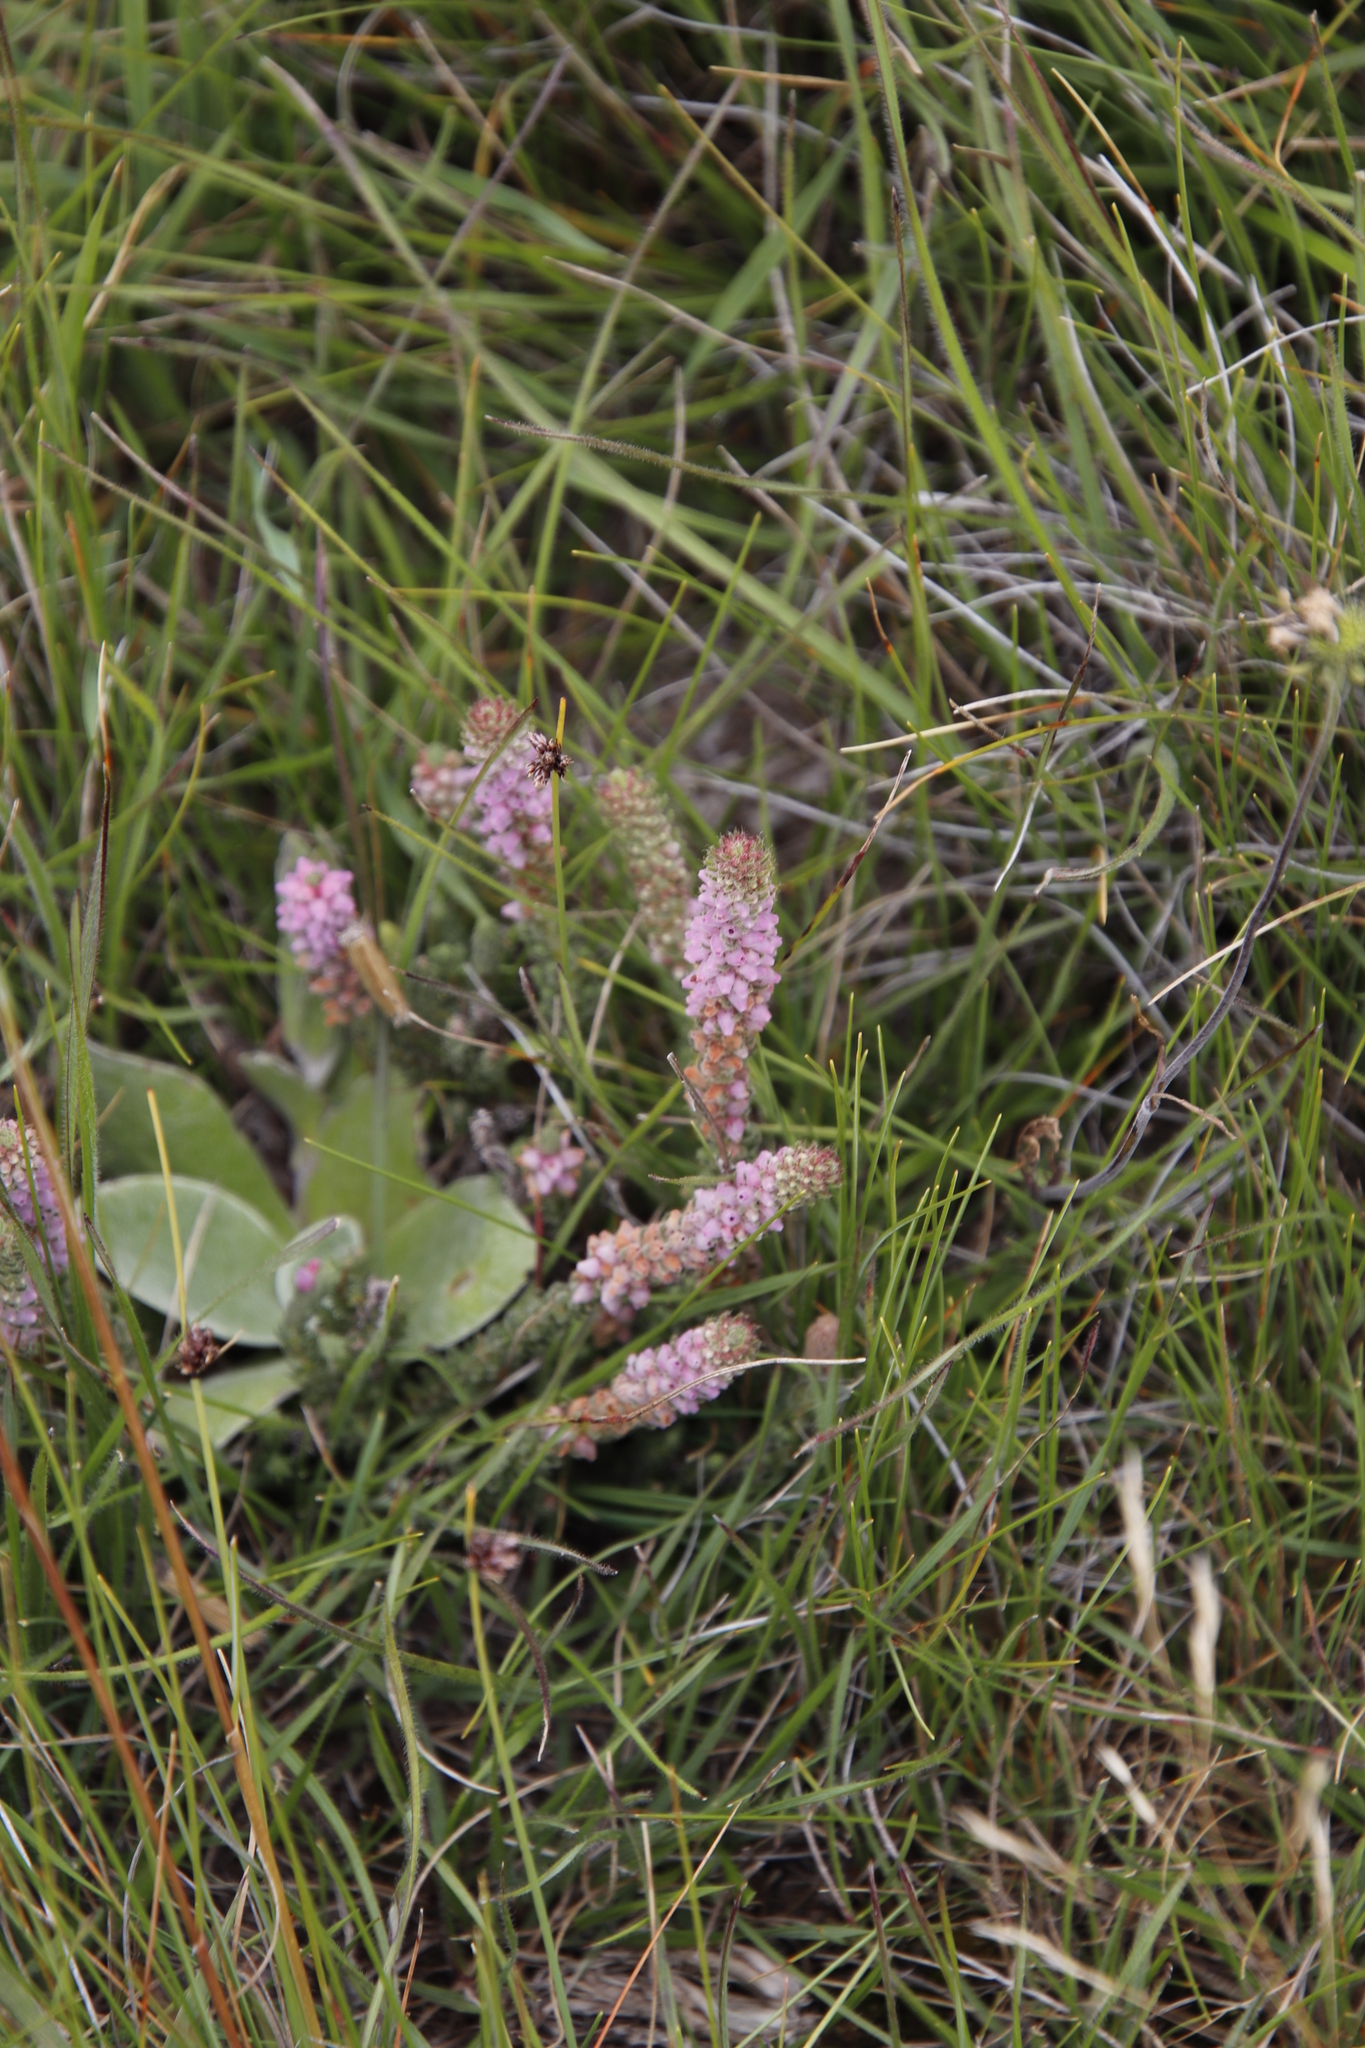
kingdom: Plantae
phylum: Tracheophyta
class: Magnoliopsida
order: Ericales
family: Ericaceae
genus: Erica
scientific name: Erica alopecurus
